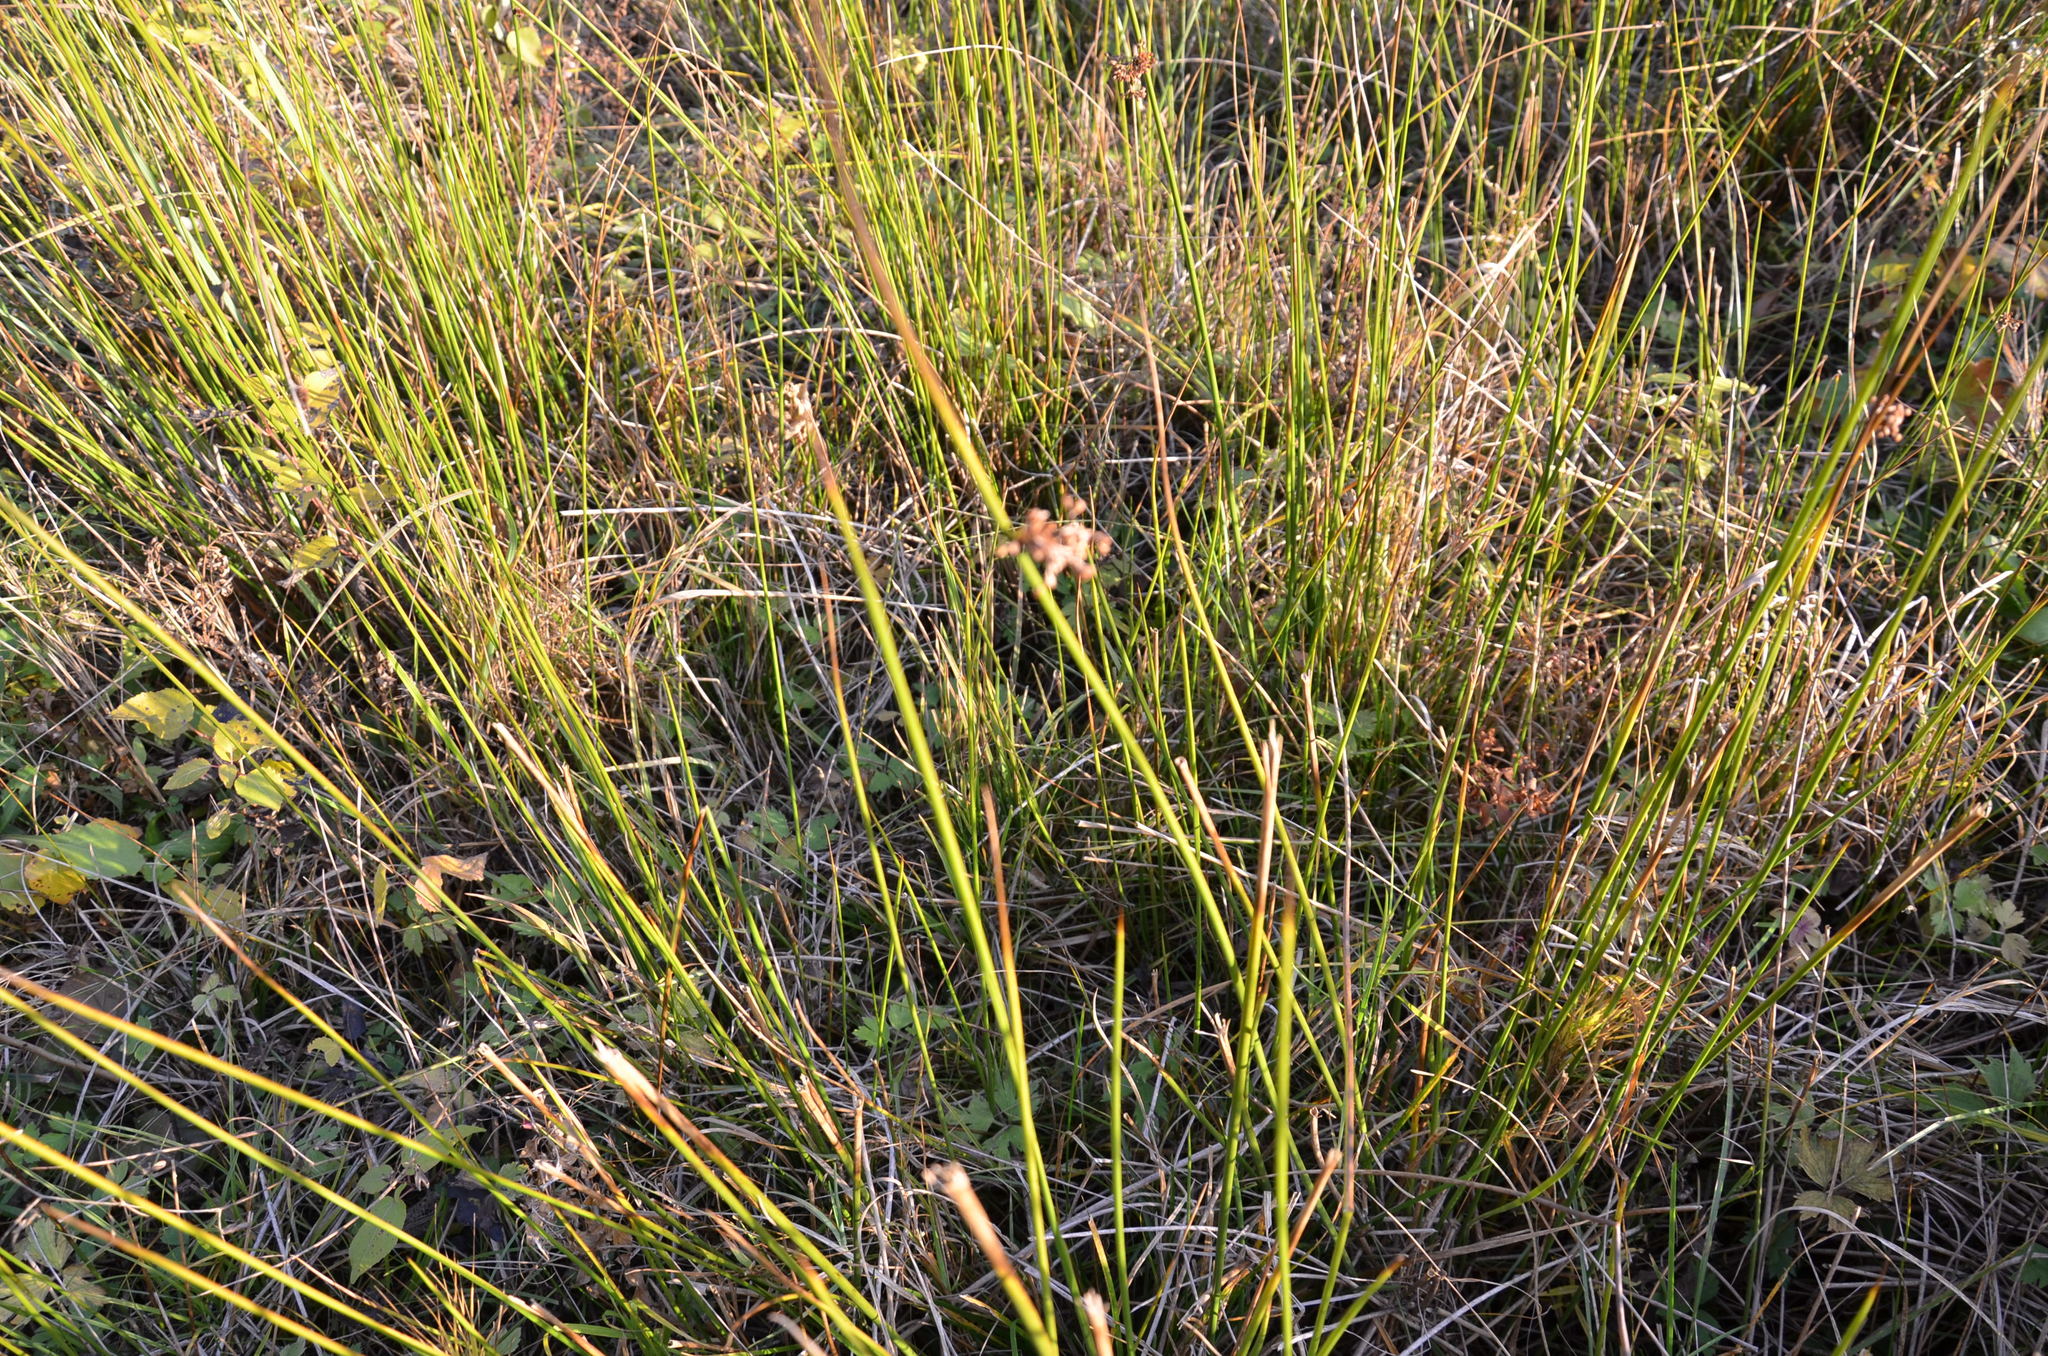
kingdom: Plantae
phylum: Tracheophyta
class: Liliopsida
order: Poales
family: Juncaceae
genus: Juncus
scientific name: Juncus effusus
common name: Soft rush
